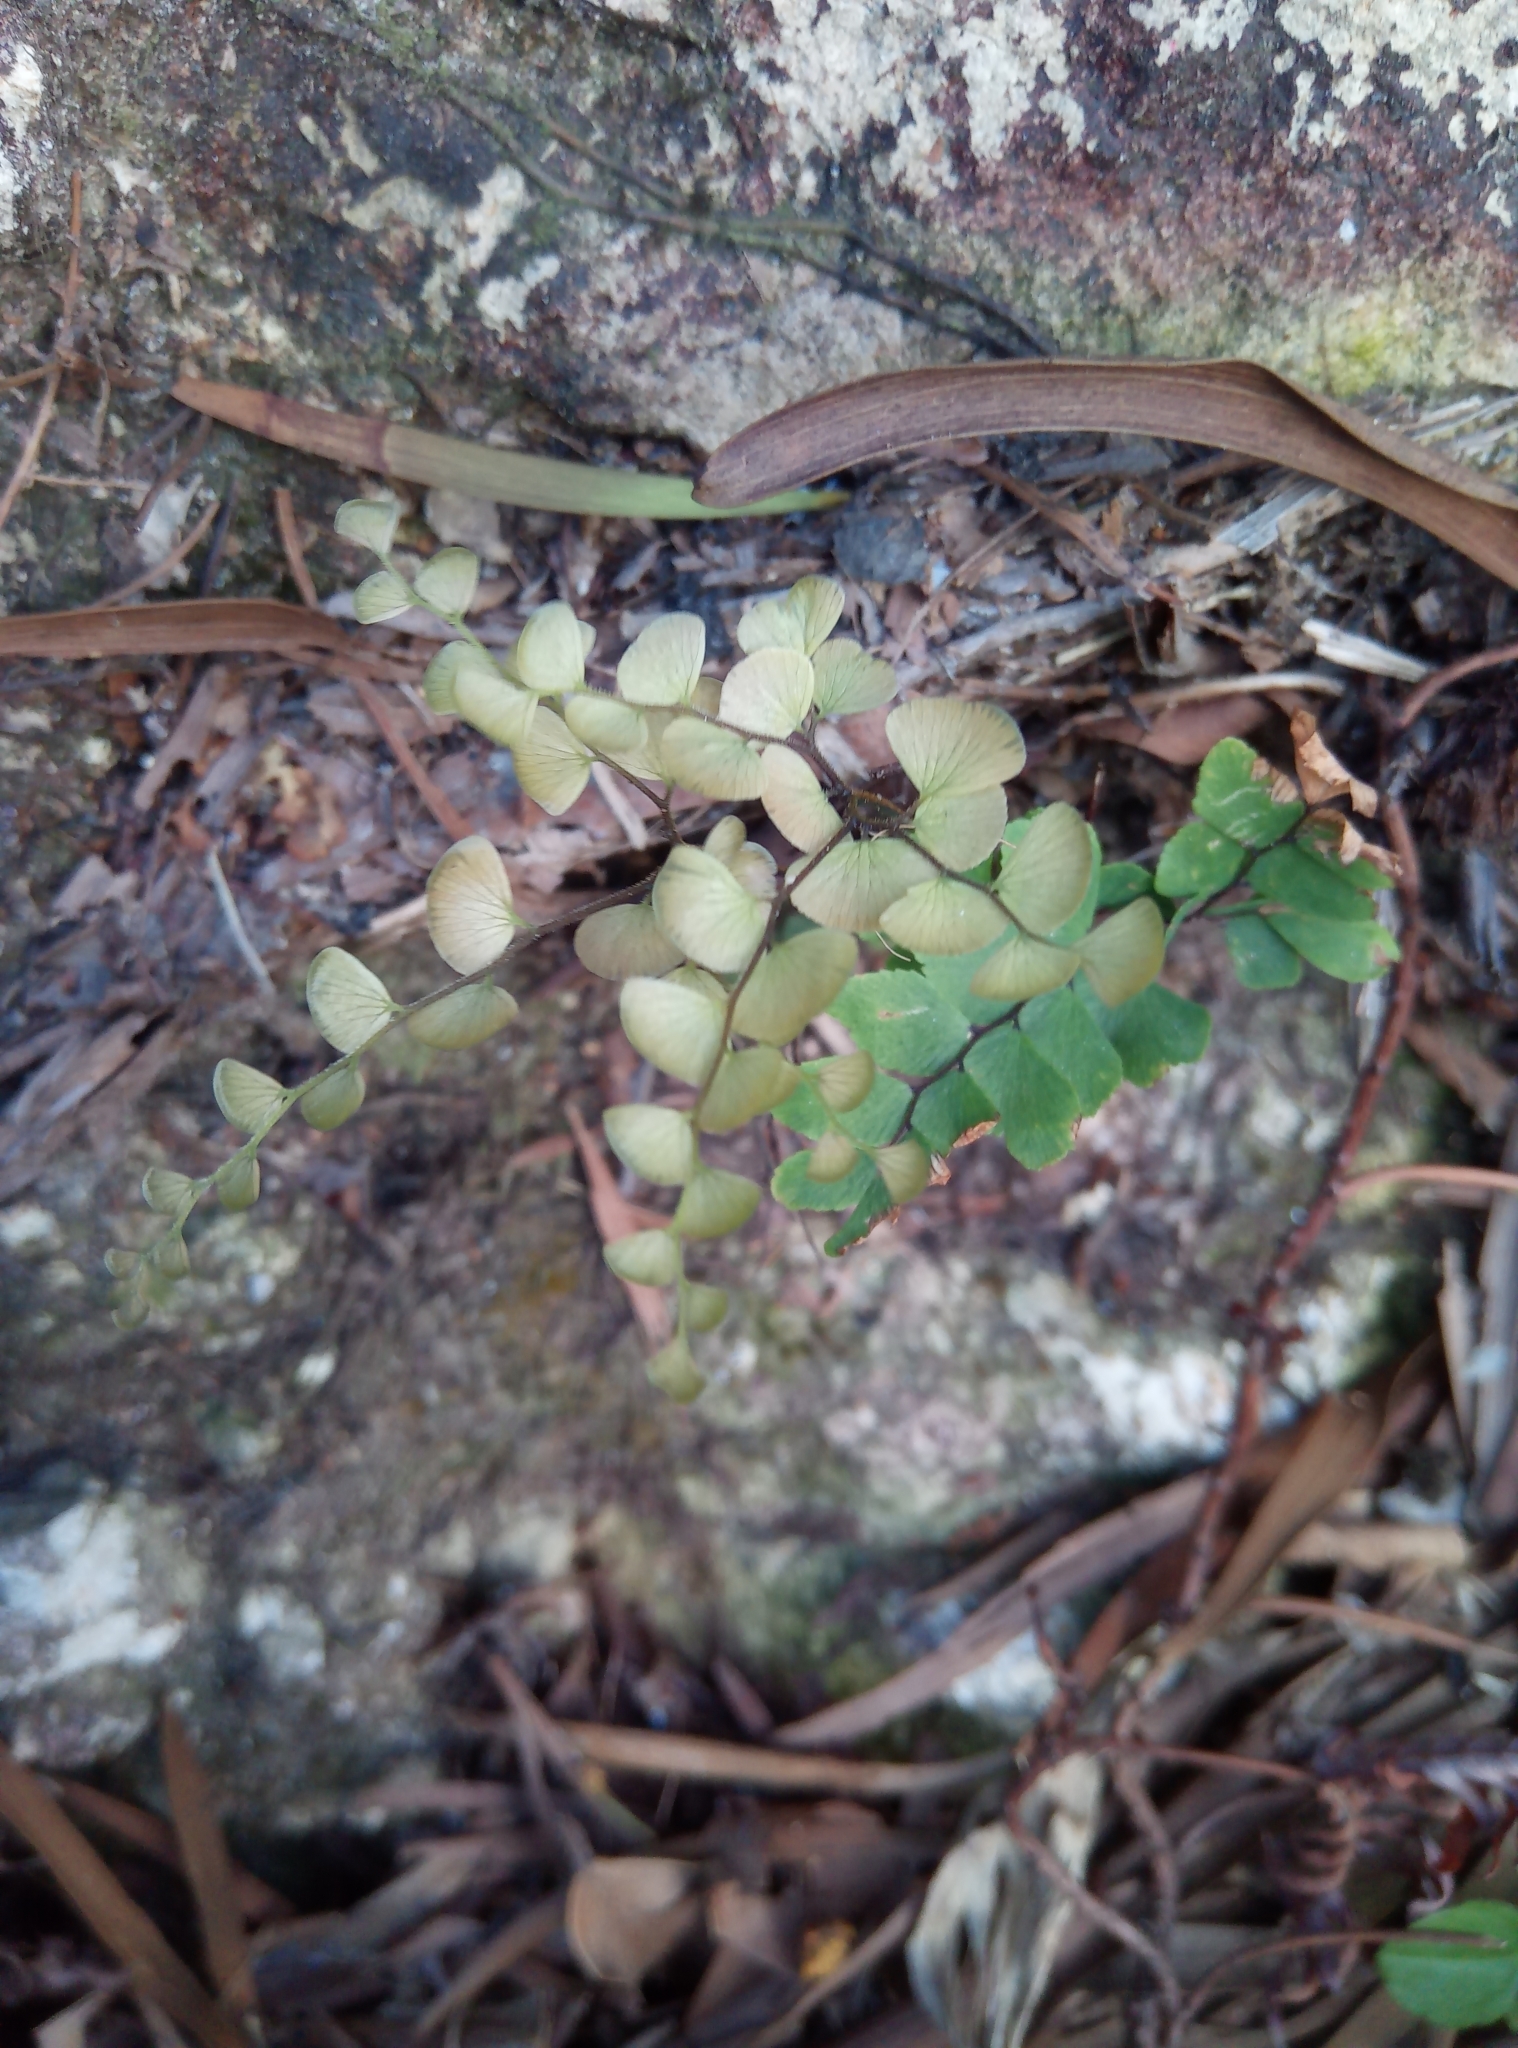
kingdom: Plantae
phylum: Tracheophyta
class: Polypodiopsida
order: Polypodiales
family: Pteridaceae
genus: Adiantum
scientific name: Adiantum flabellulatum
